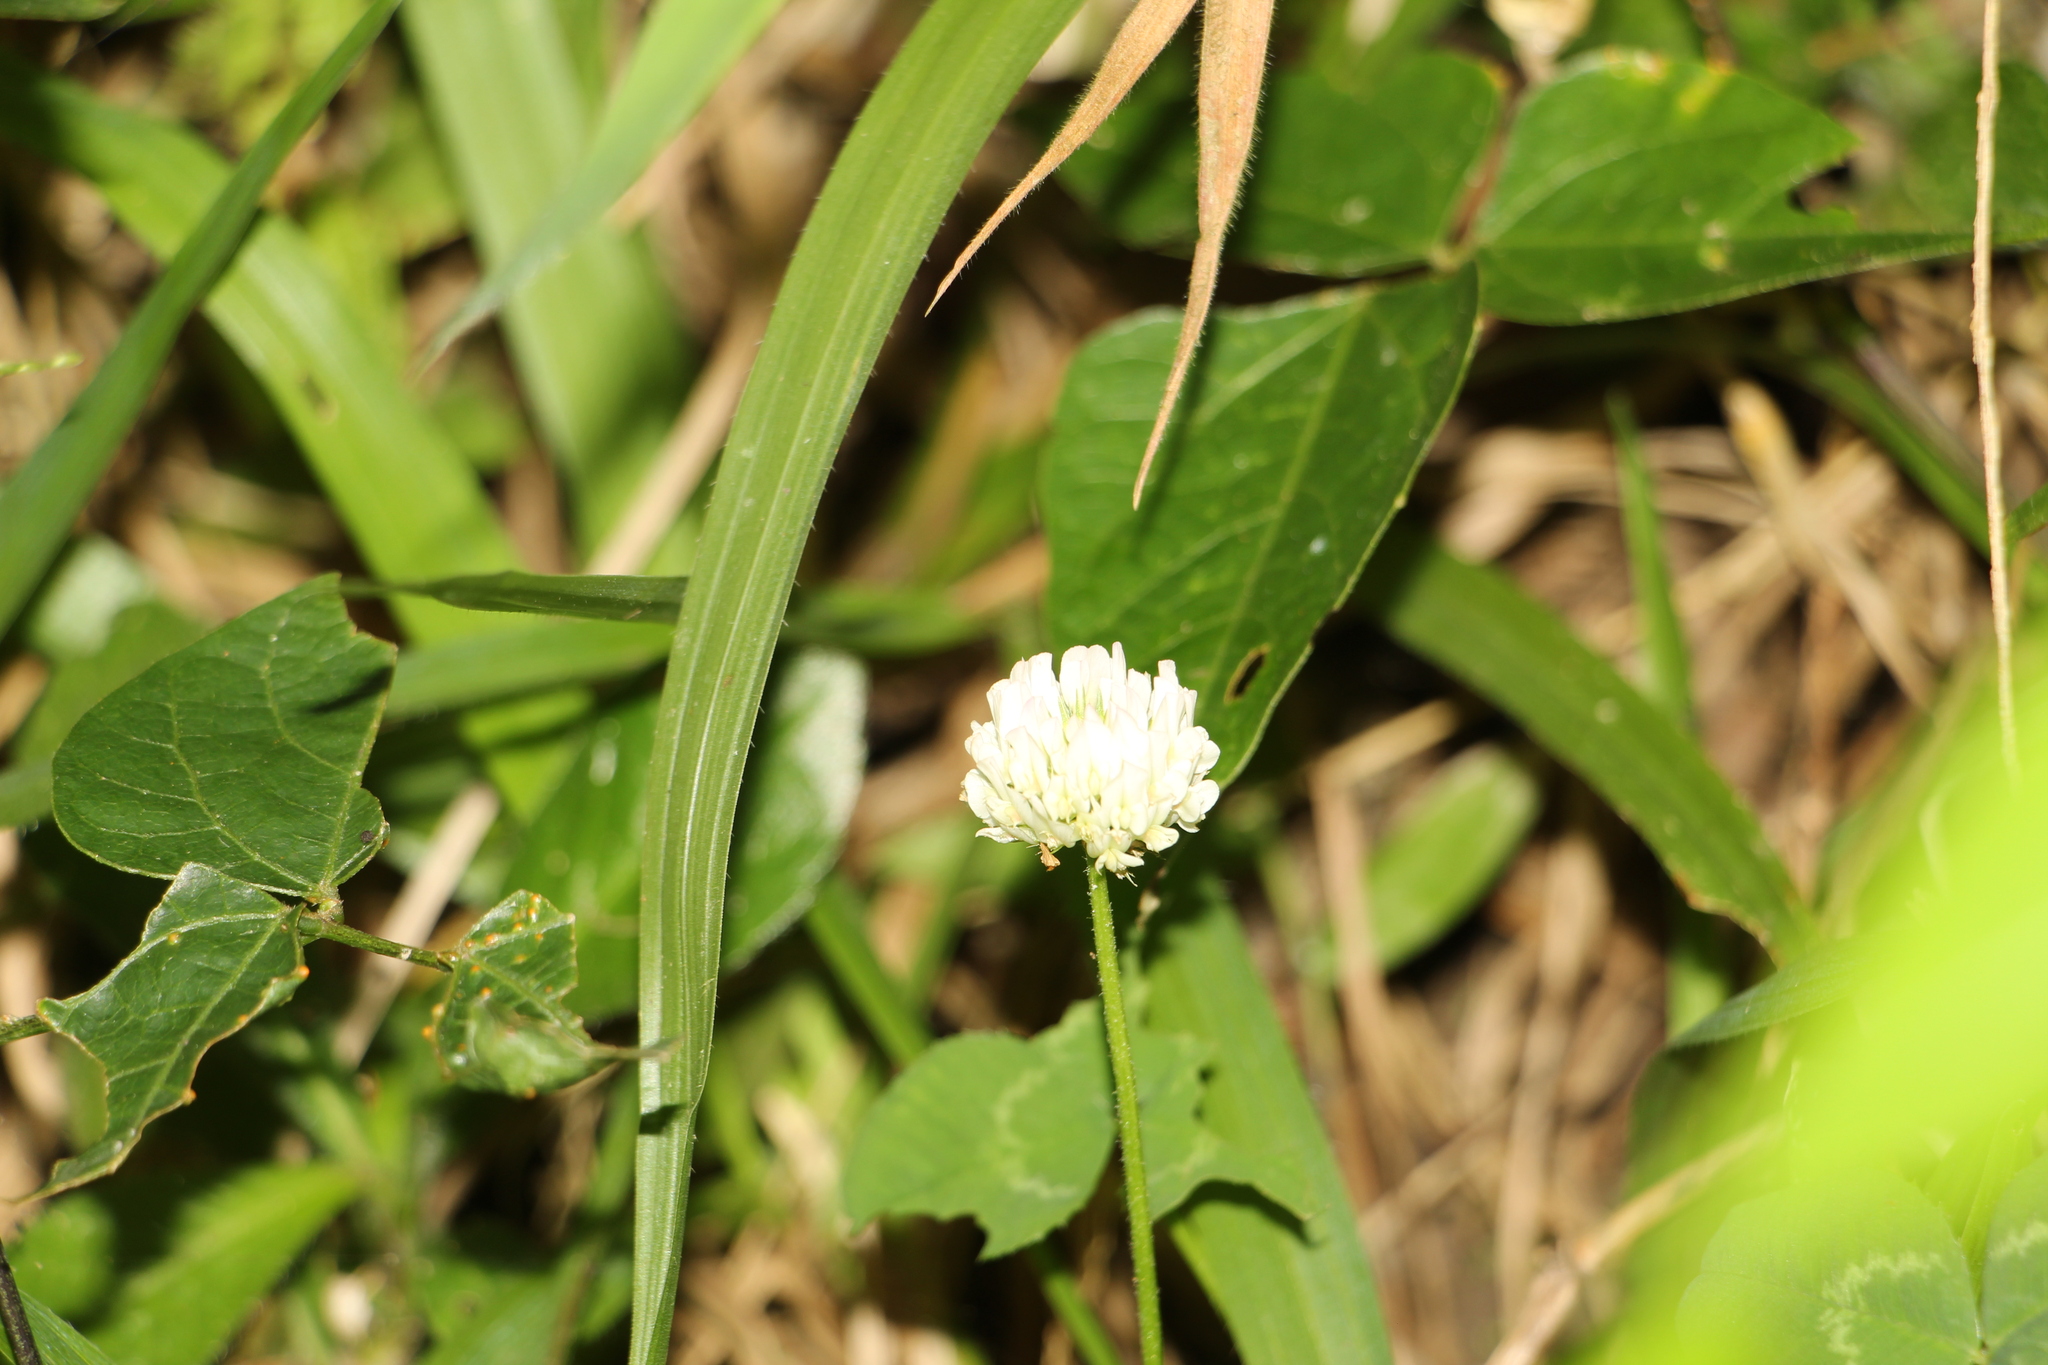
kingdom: Plantae
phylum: Tracheophyta
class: Magnoliopsida
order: Fabales
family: Fabaceae
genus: Trifolium
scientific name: Trifolium repens
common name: White clover
